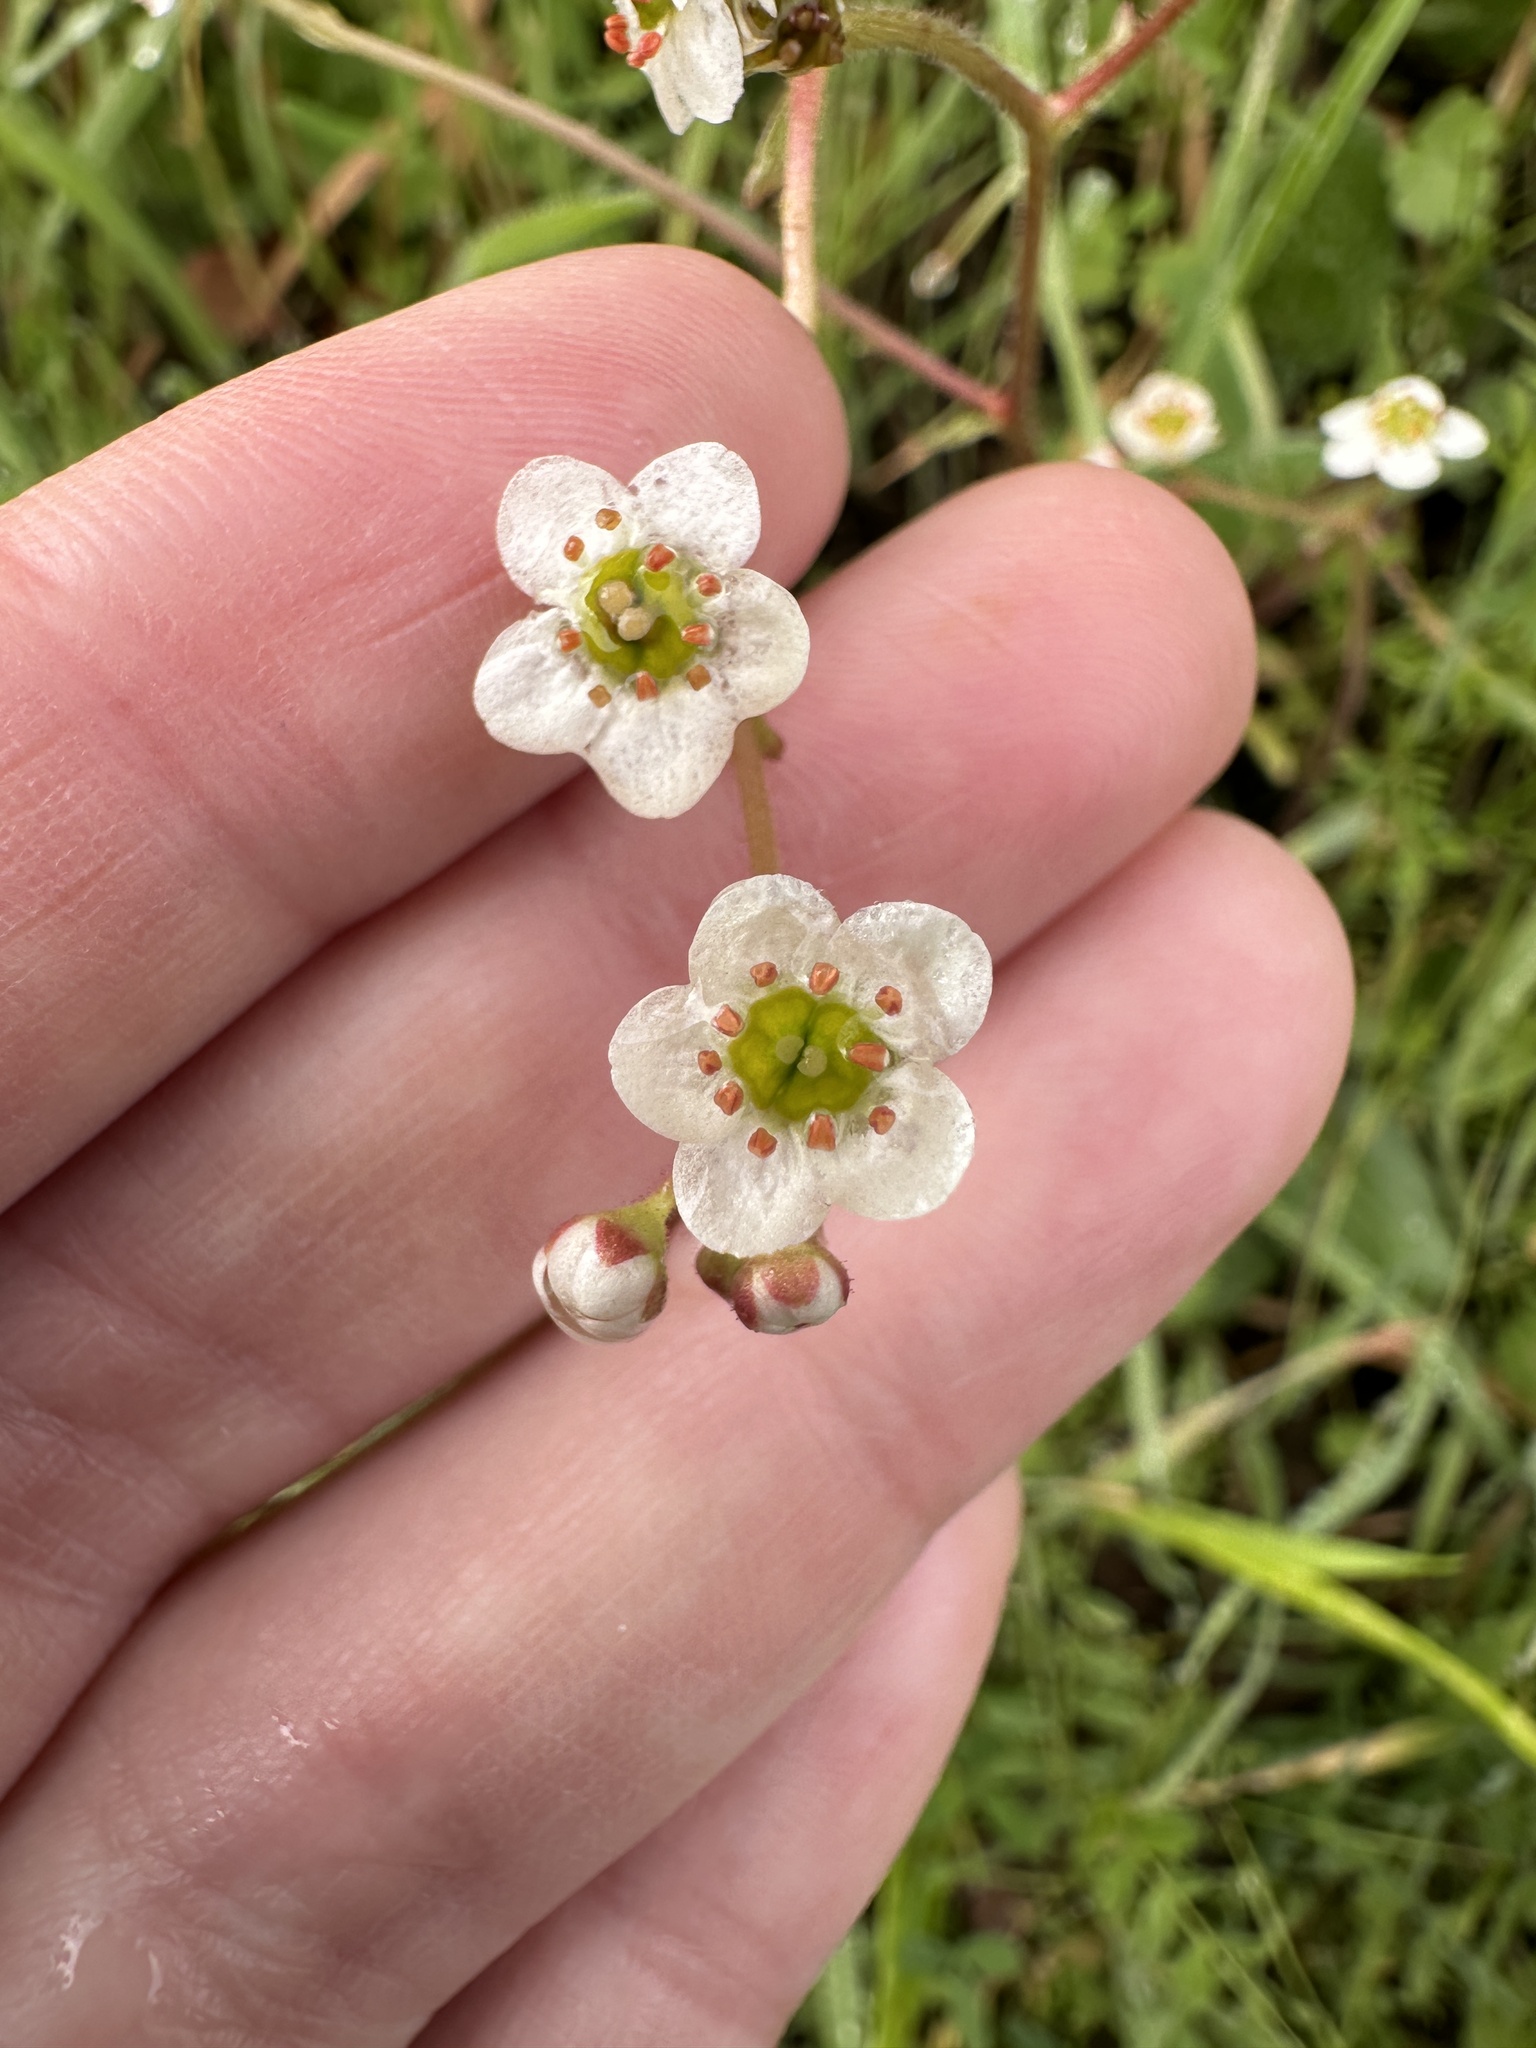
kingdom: Plantae
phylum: Tracheophyta
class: Magnoliopsida
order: Saxifragales
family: Saxifragaceae
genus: Micranthes
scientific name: Micranthes californica
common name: California saxifrage
